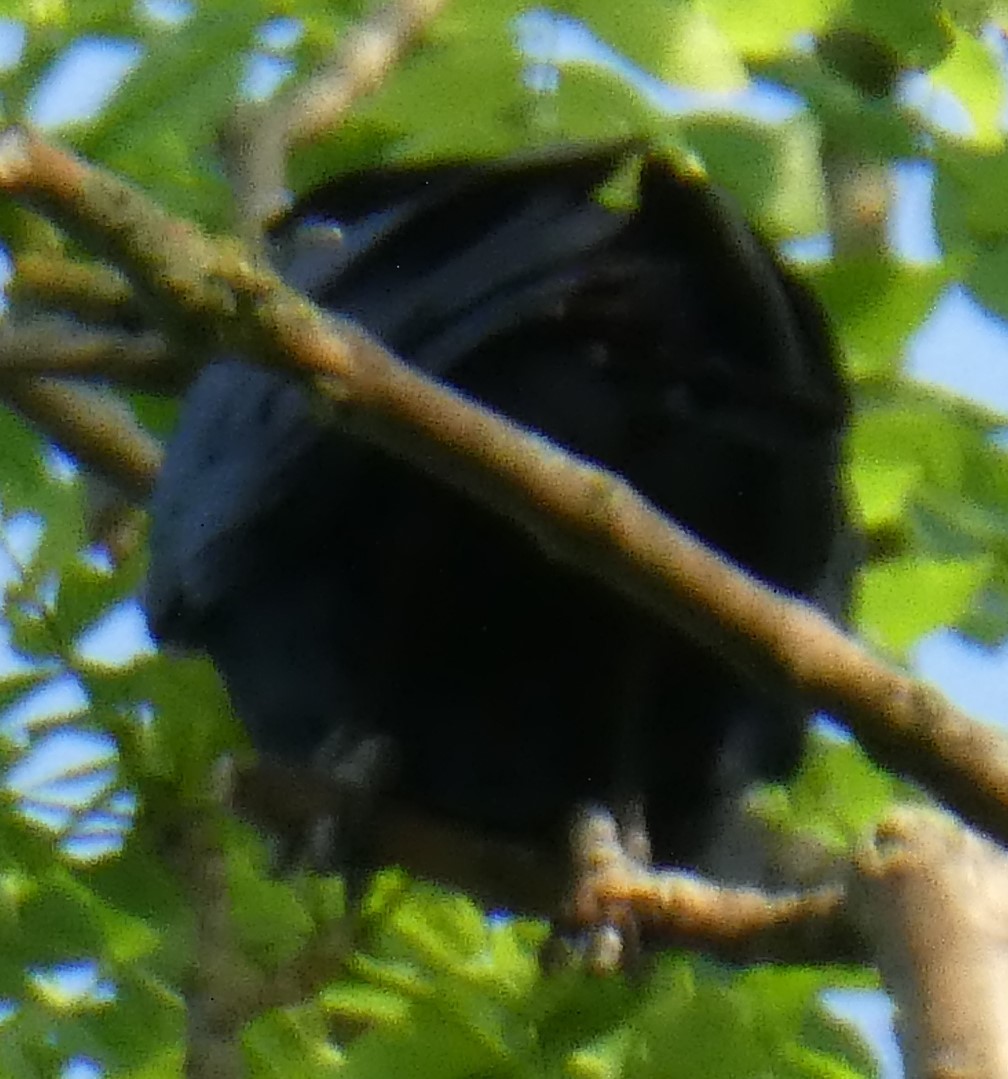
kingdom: Animalia
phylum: Chordata
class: Aves
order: Passeriformes
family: Corvidae
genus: Corvus
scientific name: Corvus frugilegus
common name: Rook
